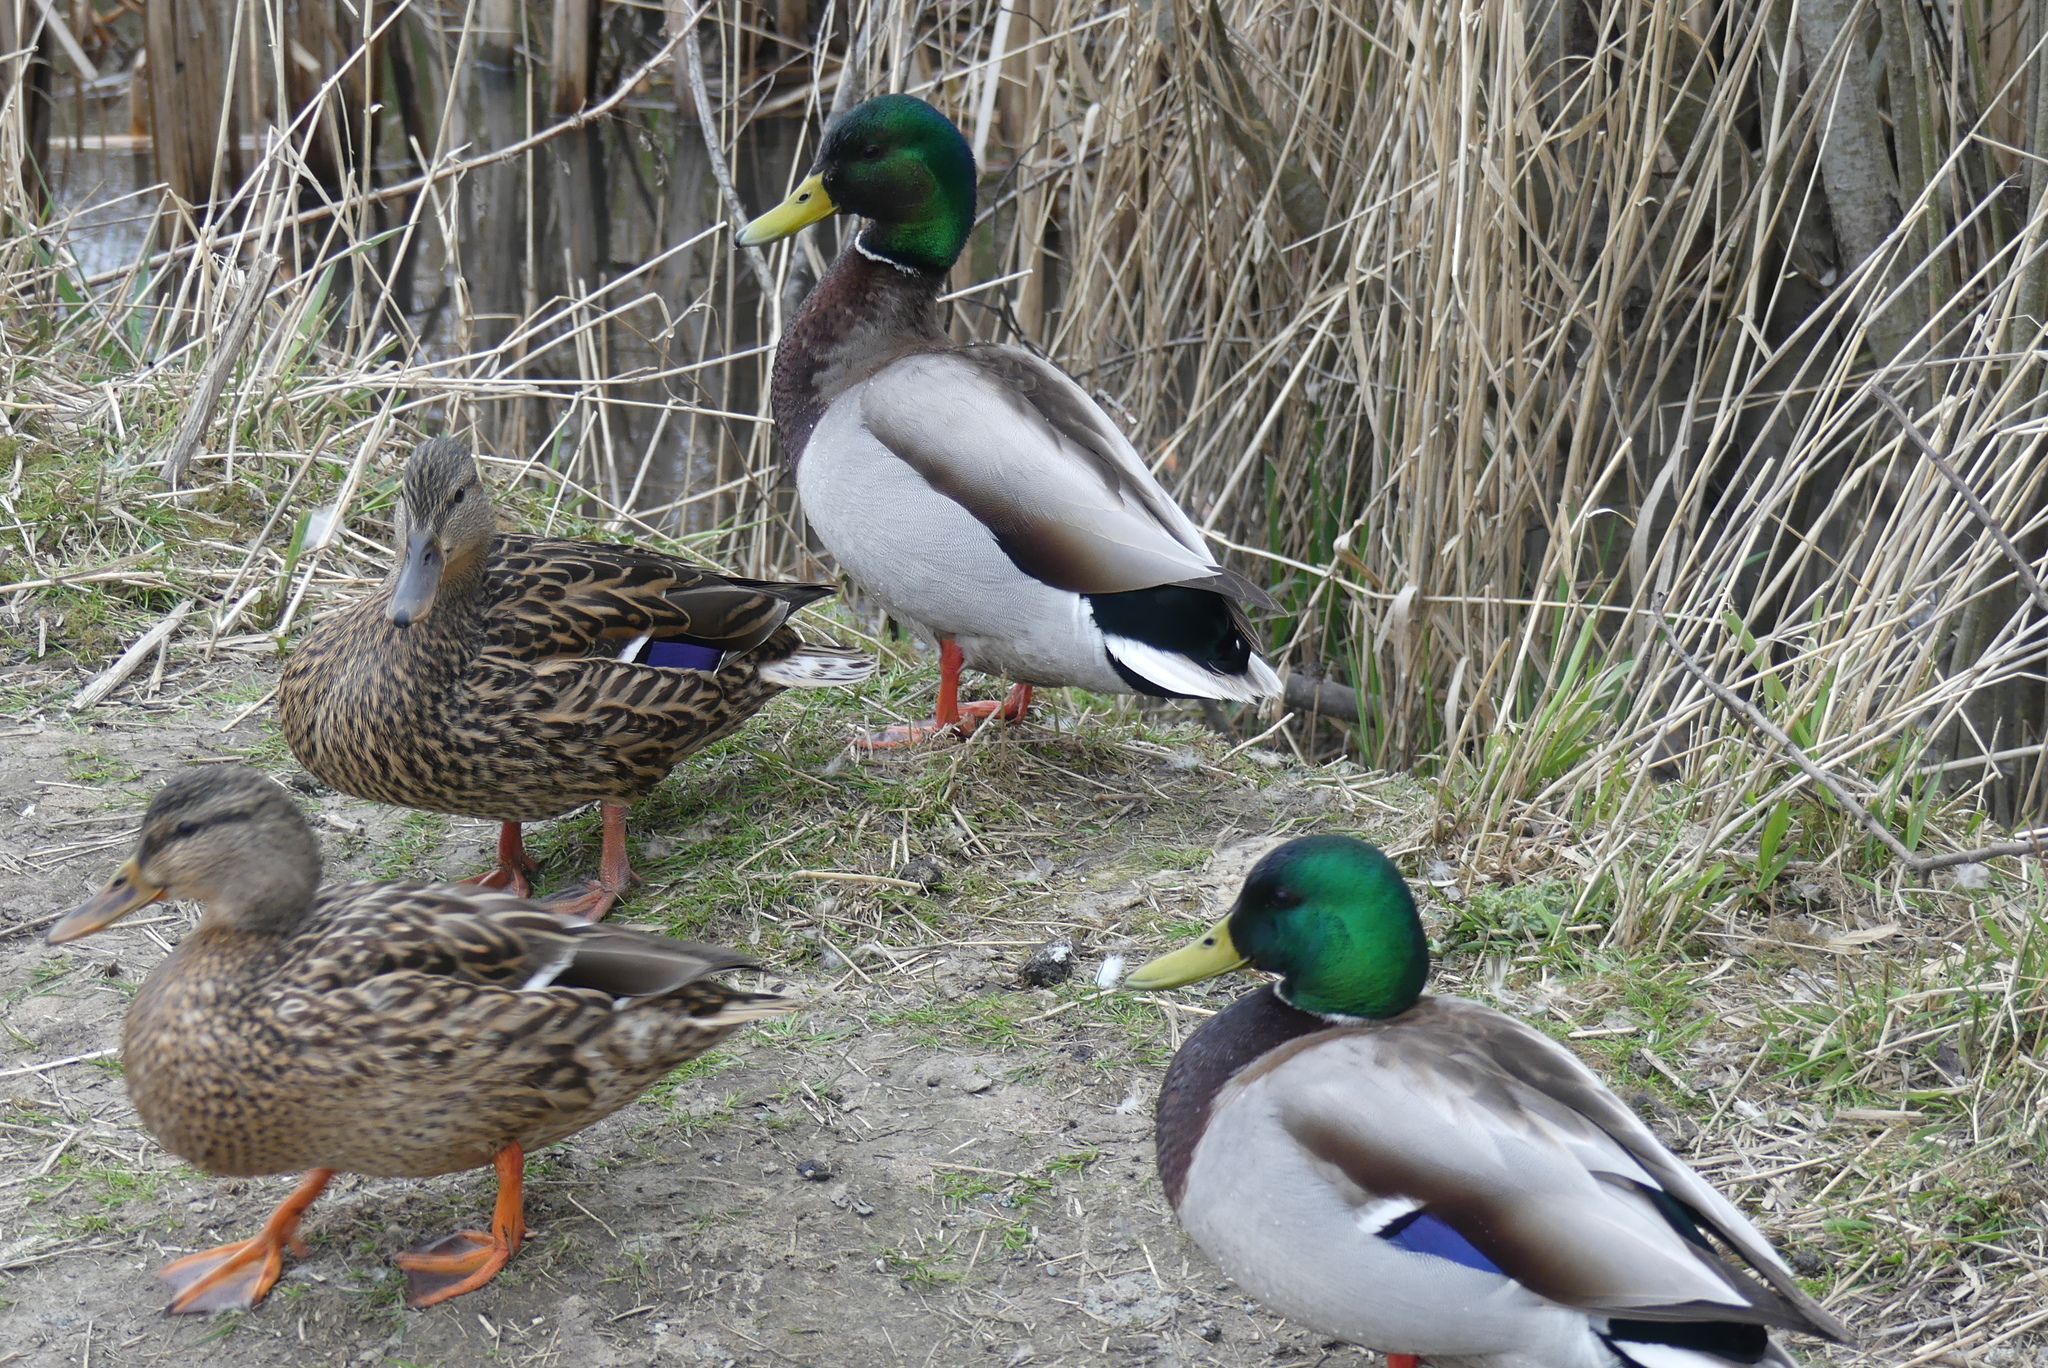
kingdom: Animalia
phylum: Chordata
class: Aves
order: Anseriformes
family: Anatidae
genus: Anas
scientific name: Anas platyrhynchos
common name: Mallard
